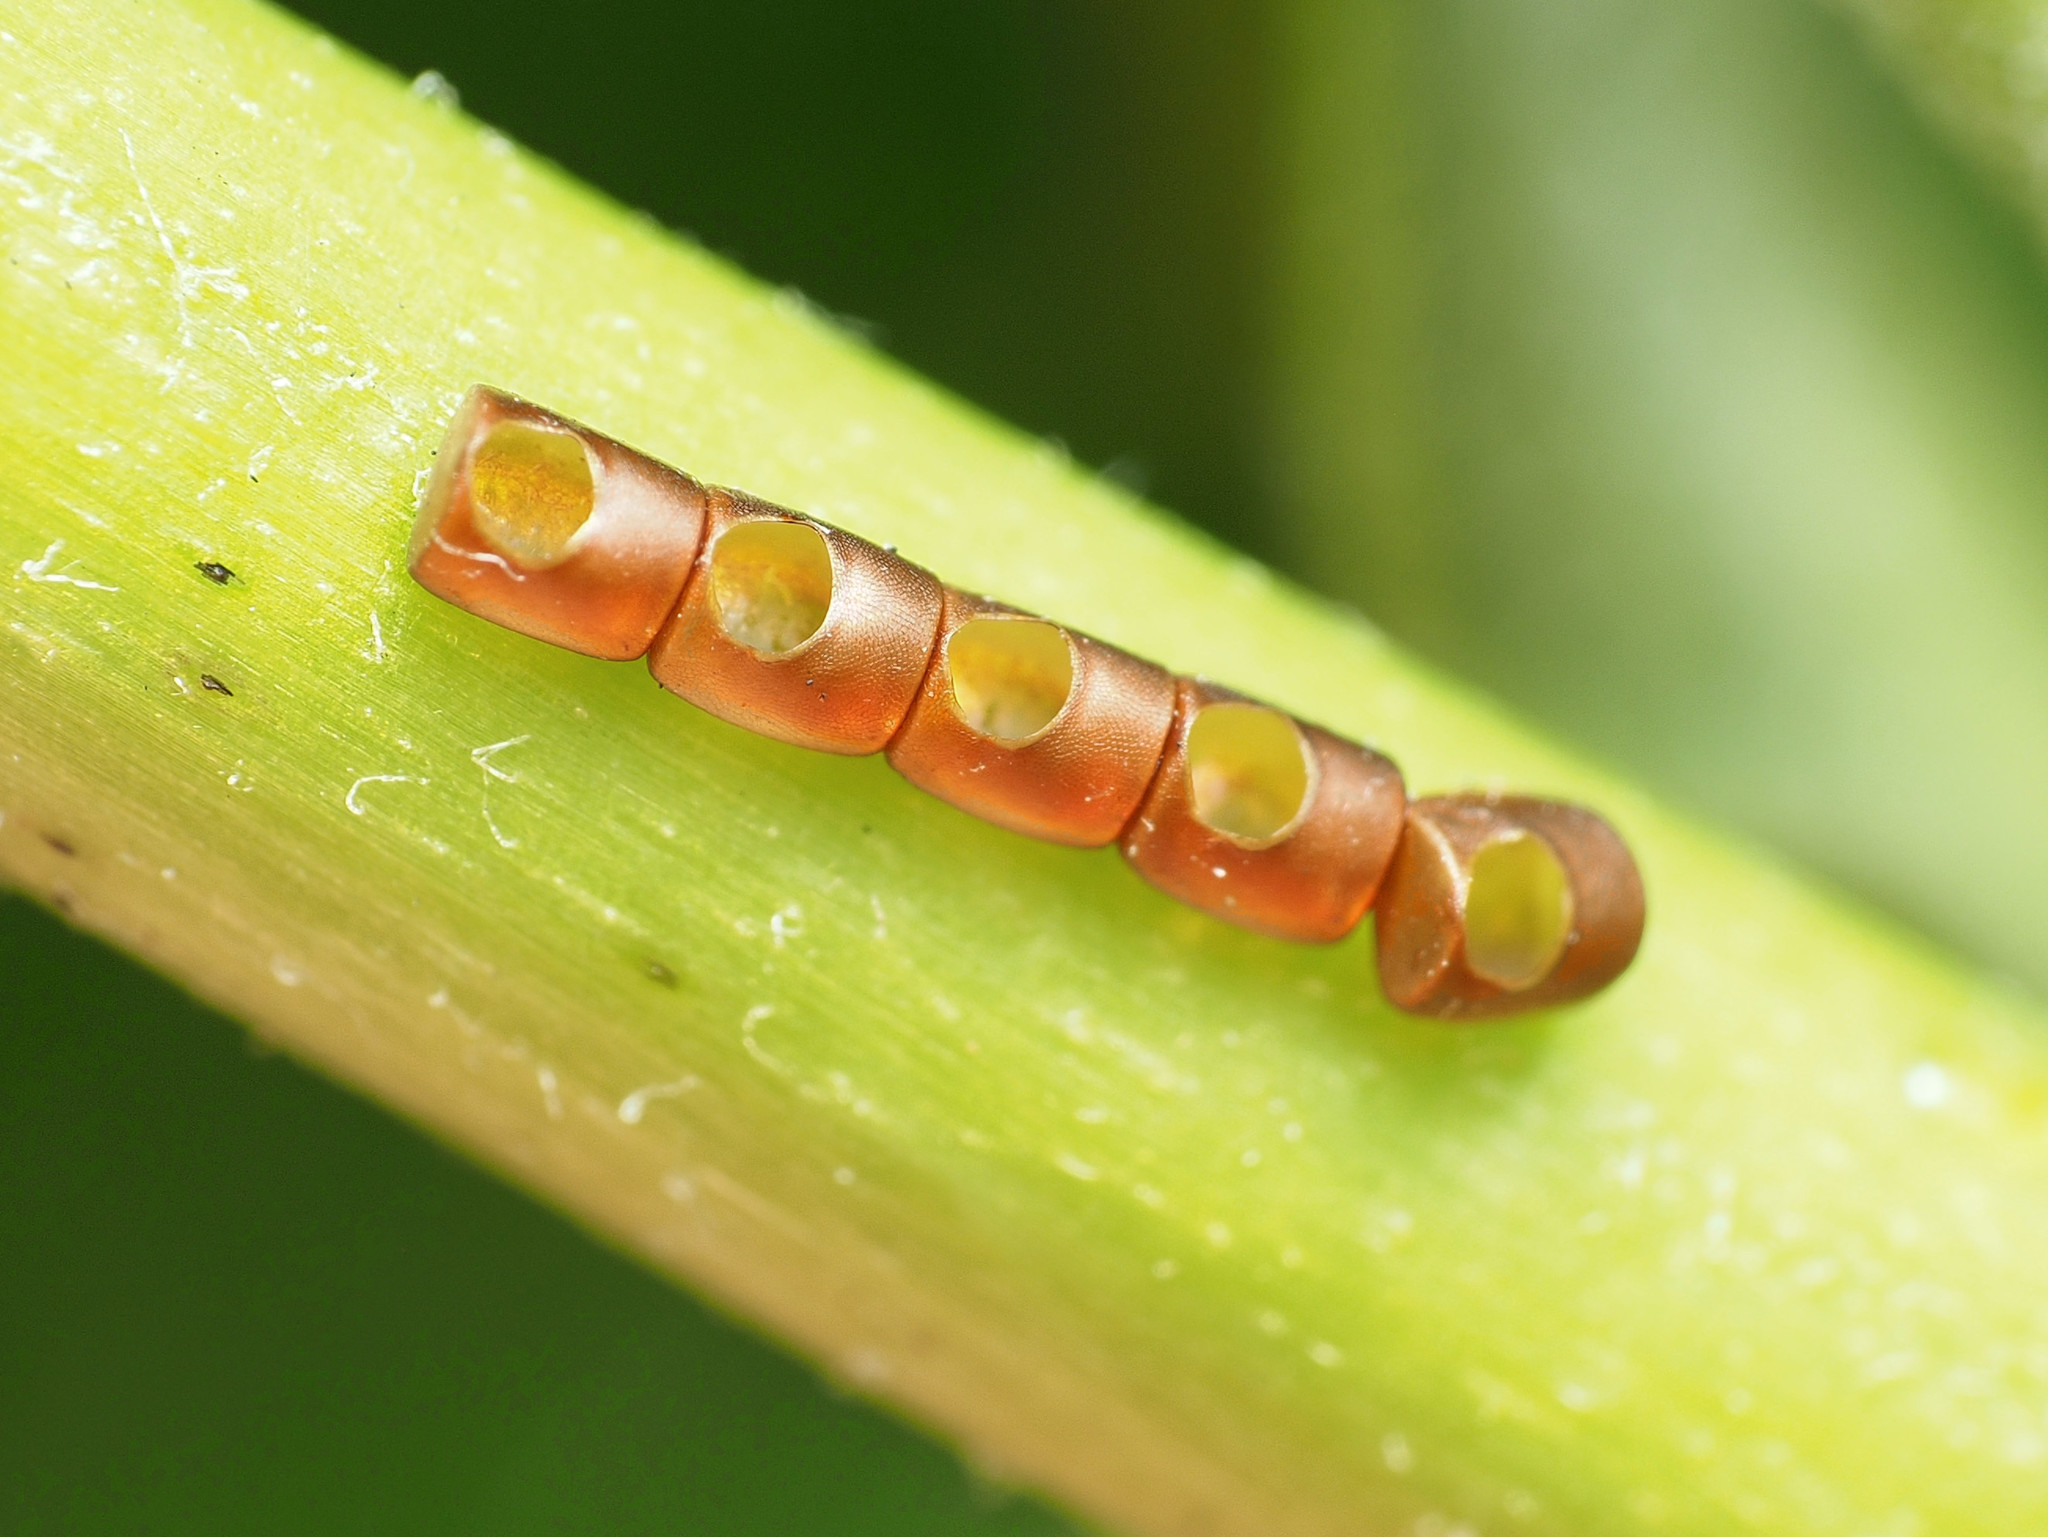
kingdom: Animalia
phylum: Arthropoda
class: Insecta
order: Hemiptera
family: Coreidae
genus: Leptoglossus
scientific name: Leptoglossus
